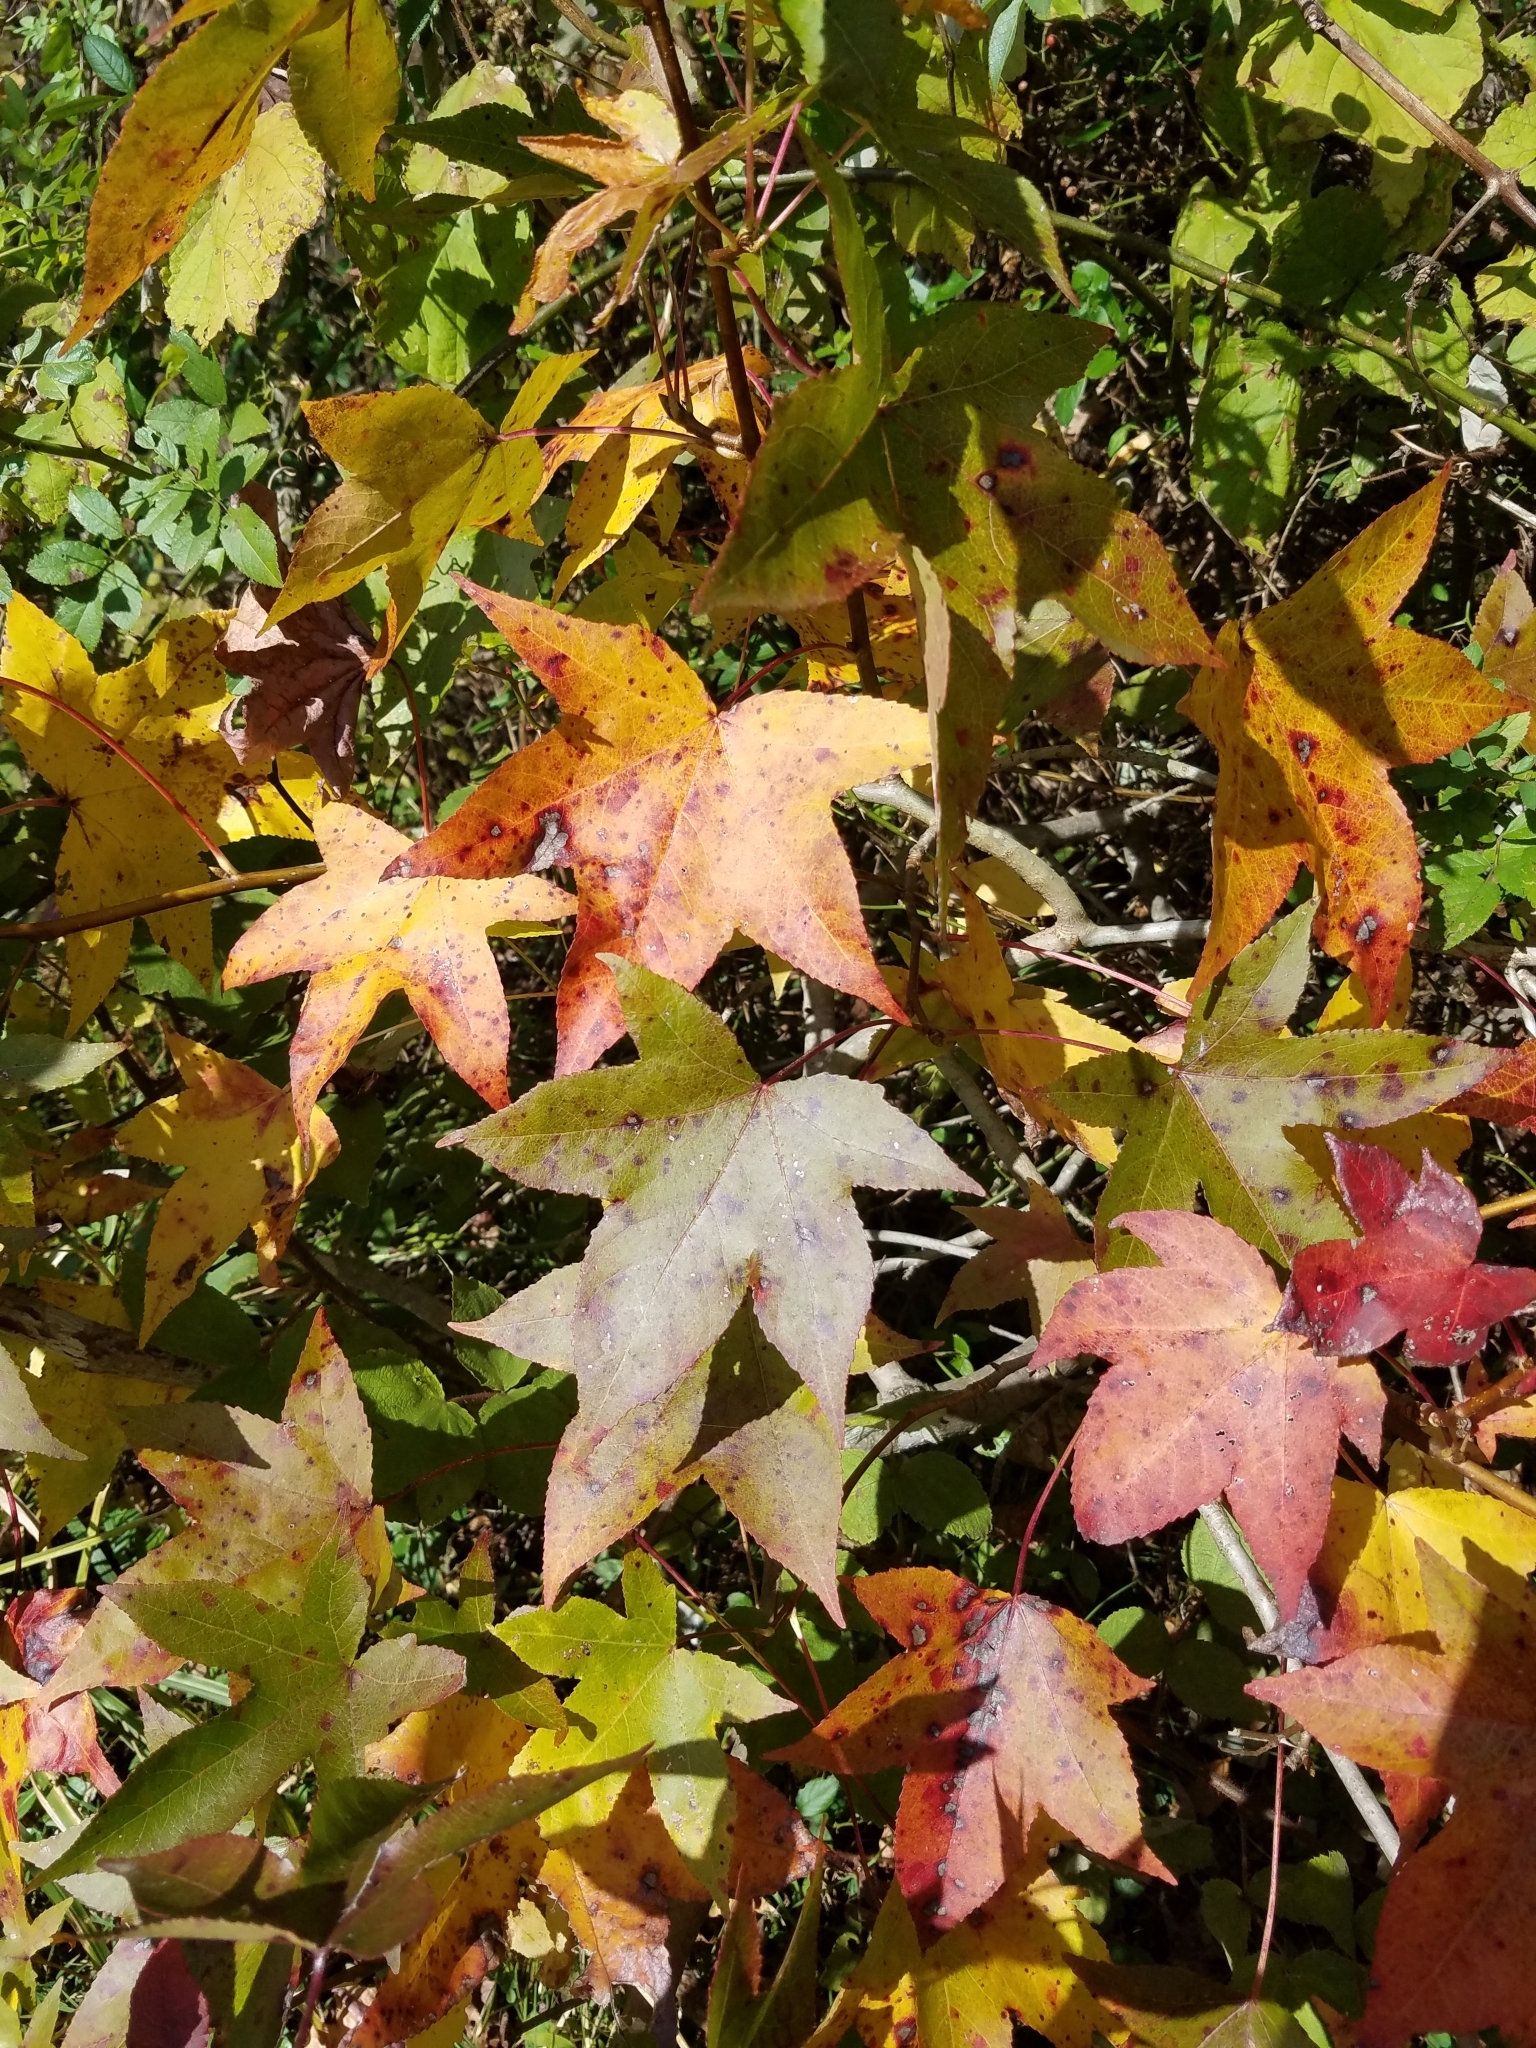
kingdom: Plantae
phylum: Tracheophyta
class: Magnoliopsida
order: Saxifragales
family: Altingiaceae
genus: Liquidambar
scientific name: Liquidambar styraciflua
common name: Sweet gum
